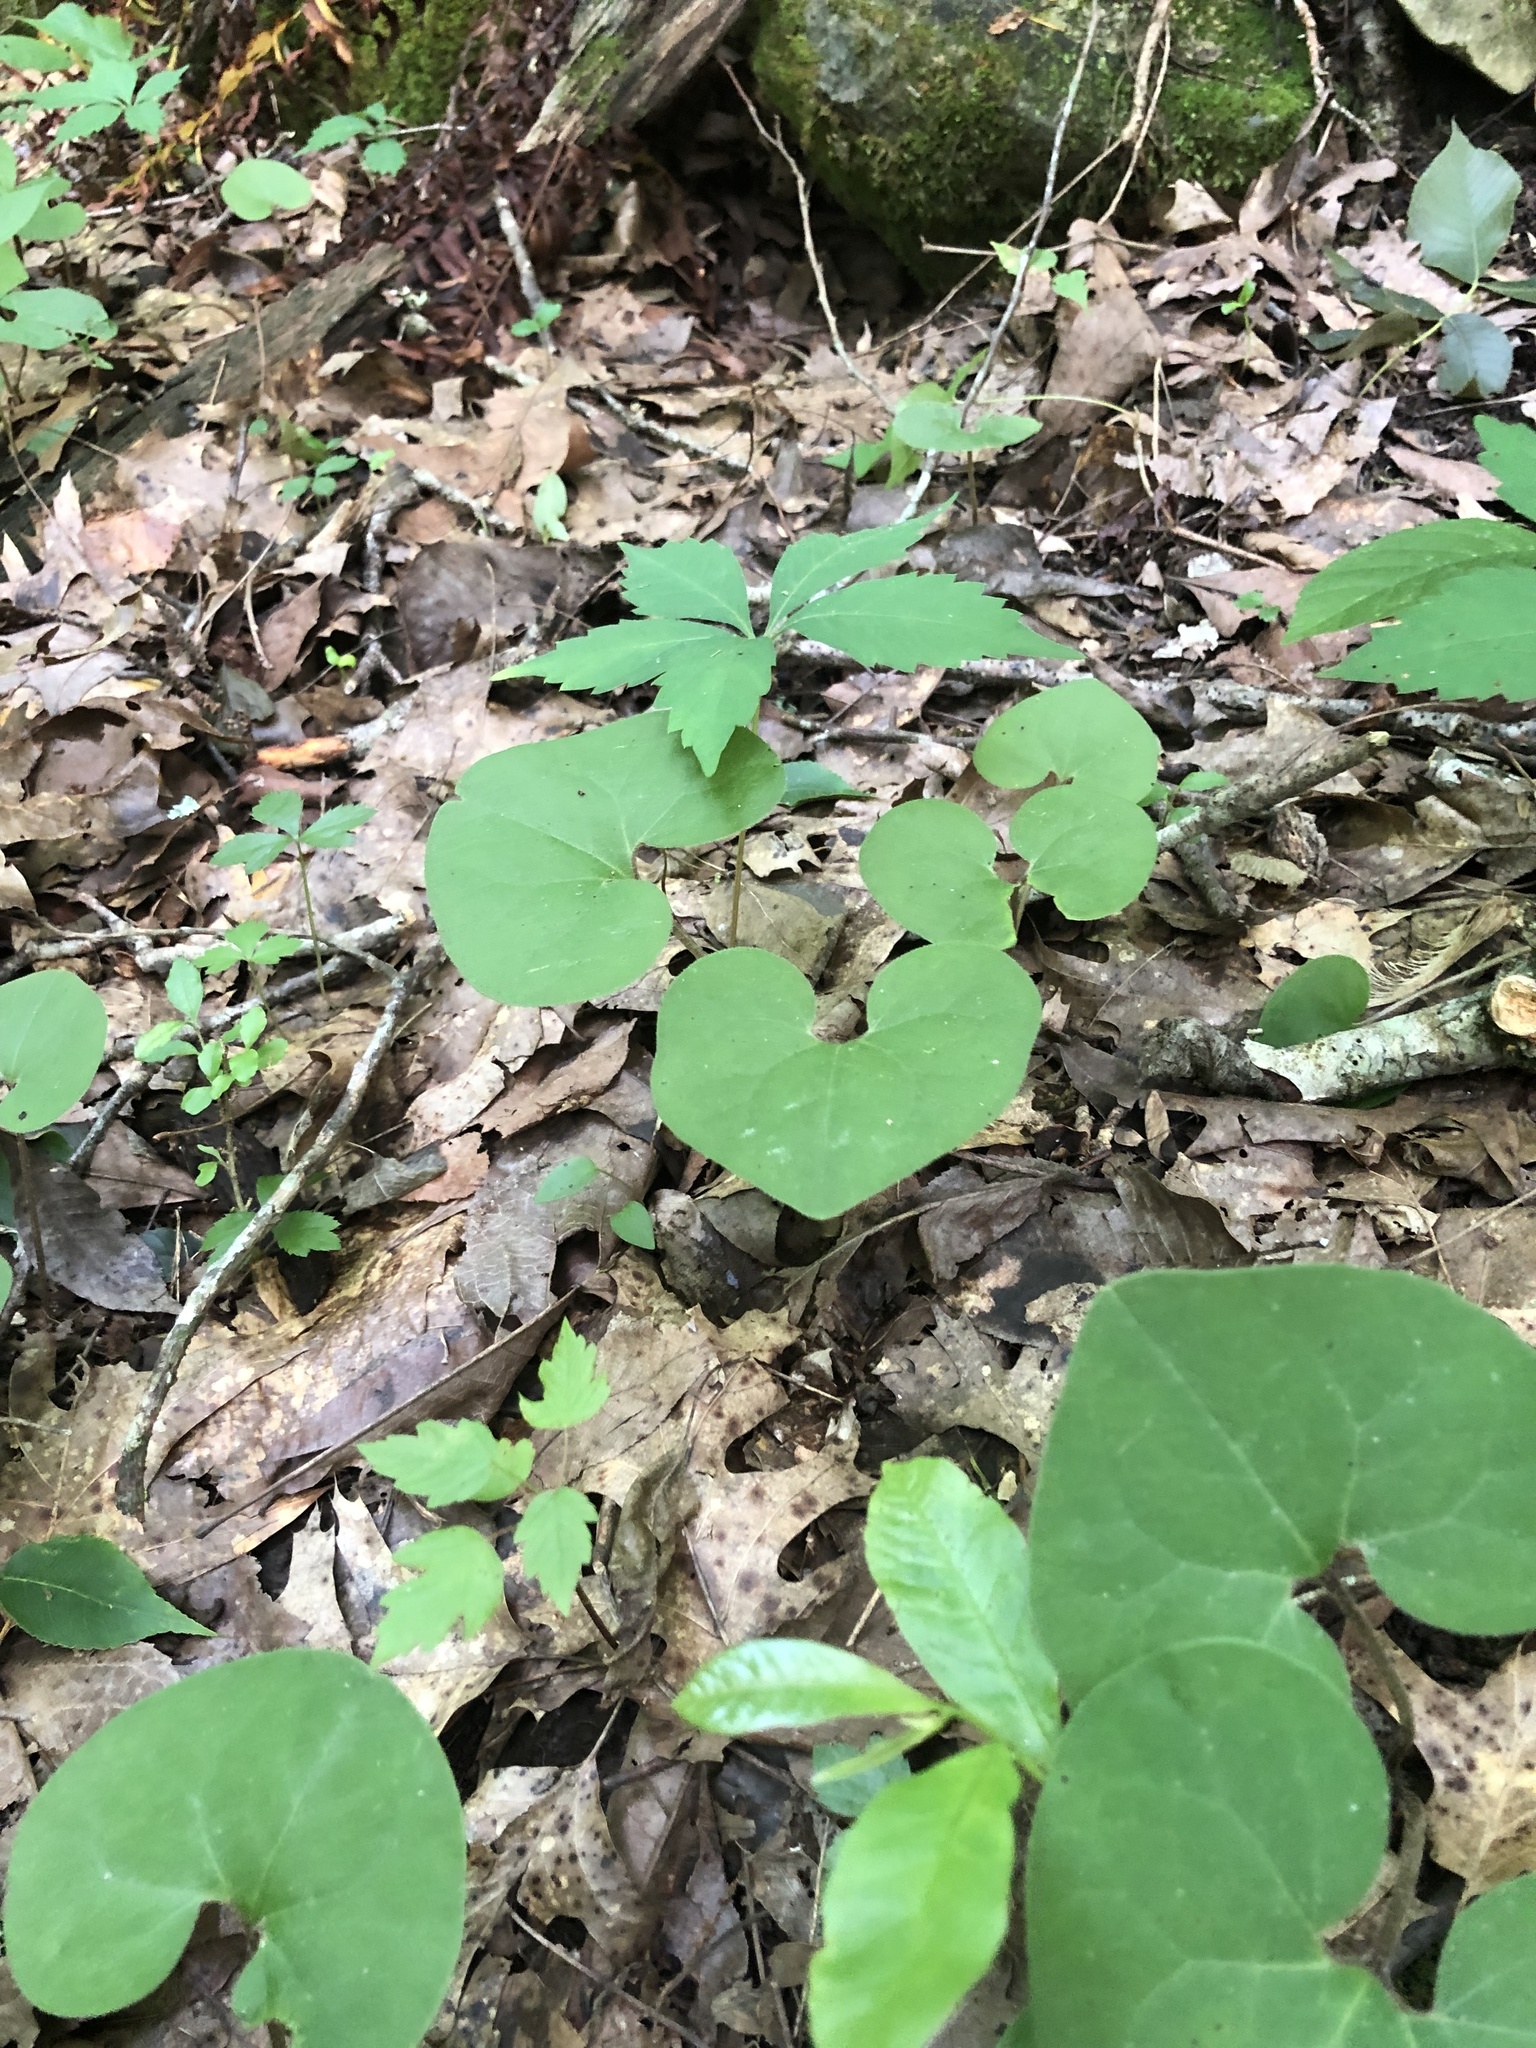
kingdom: Plantae
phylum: Tracheophyta
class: Magnoliopsida
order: Piperales
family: Aristolochiaceae
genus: Asarum
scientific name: Asarum canadense
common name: Wild ginger
